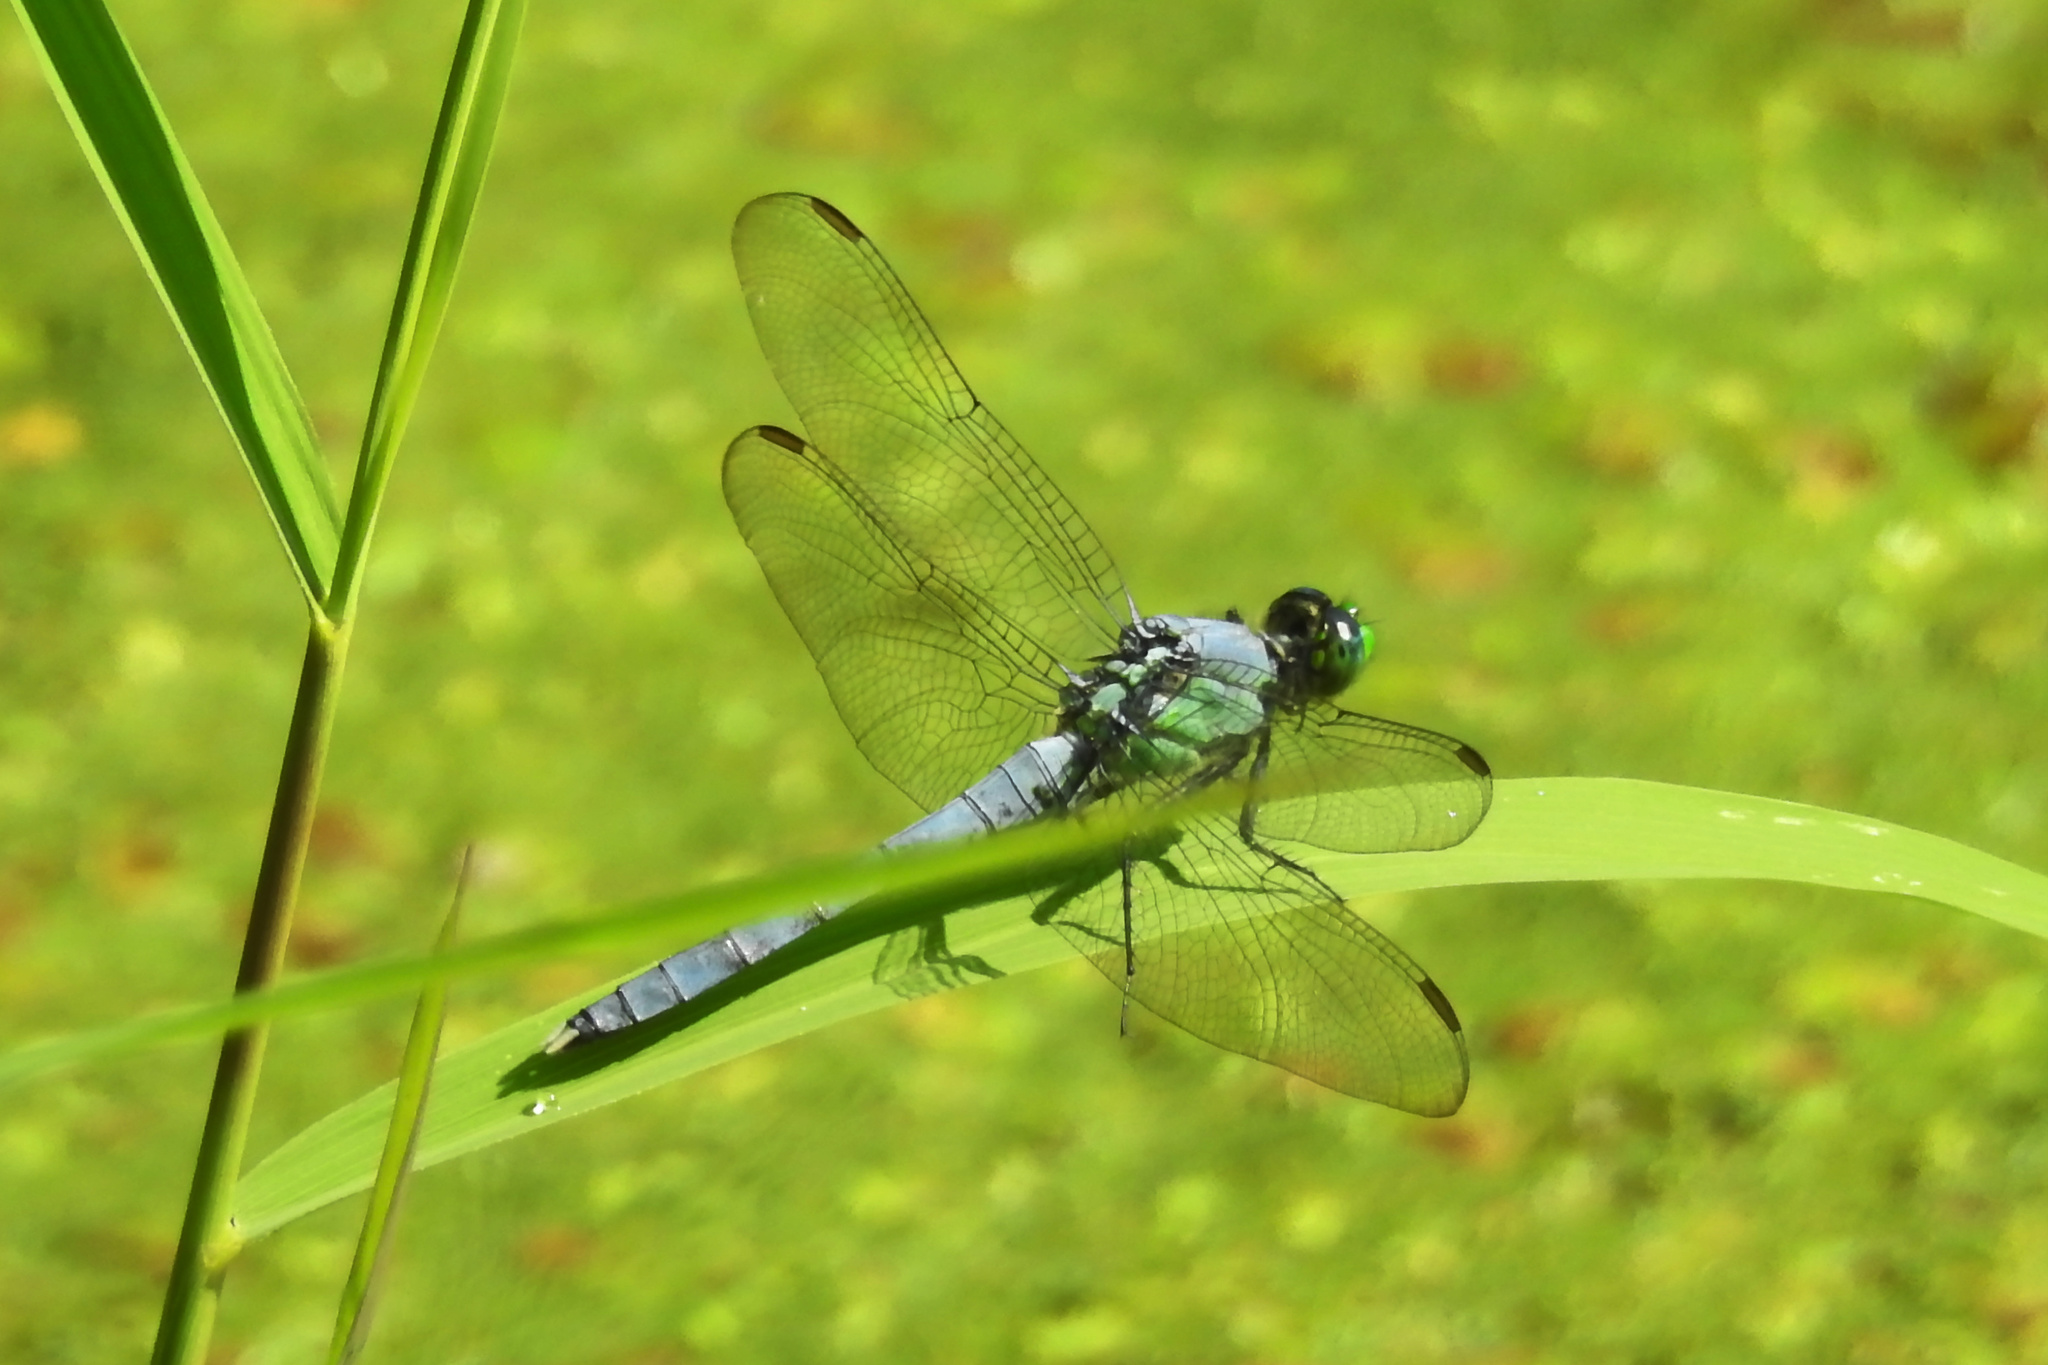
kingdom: Animalia
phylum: Arthropoda
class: Insecta
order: Odonata
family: Libellulidae
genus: Erythemis
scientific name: Erythemis simplicicollis
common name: Eastern pondhawk
